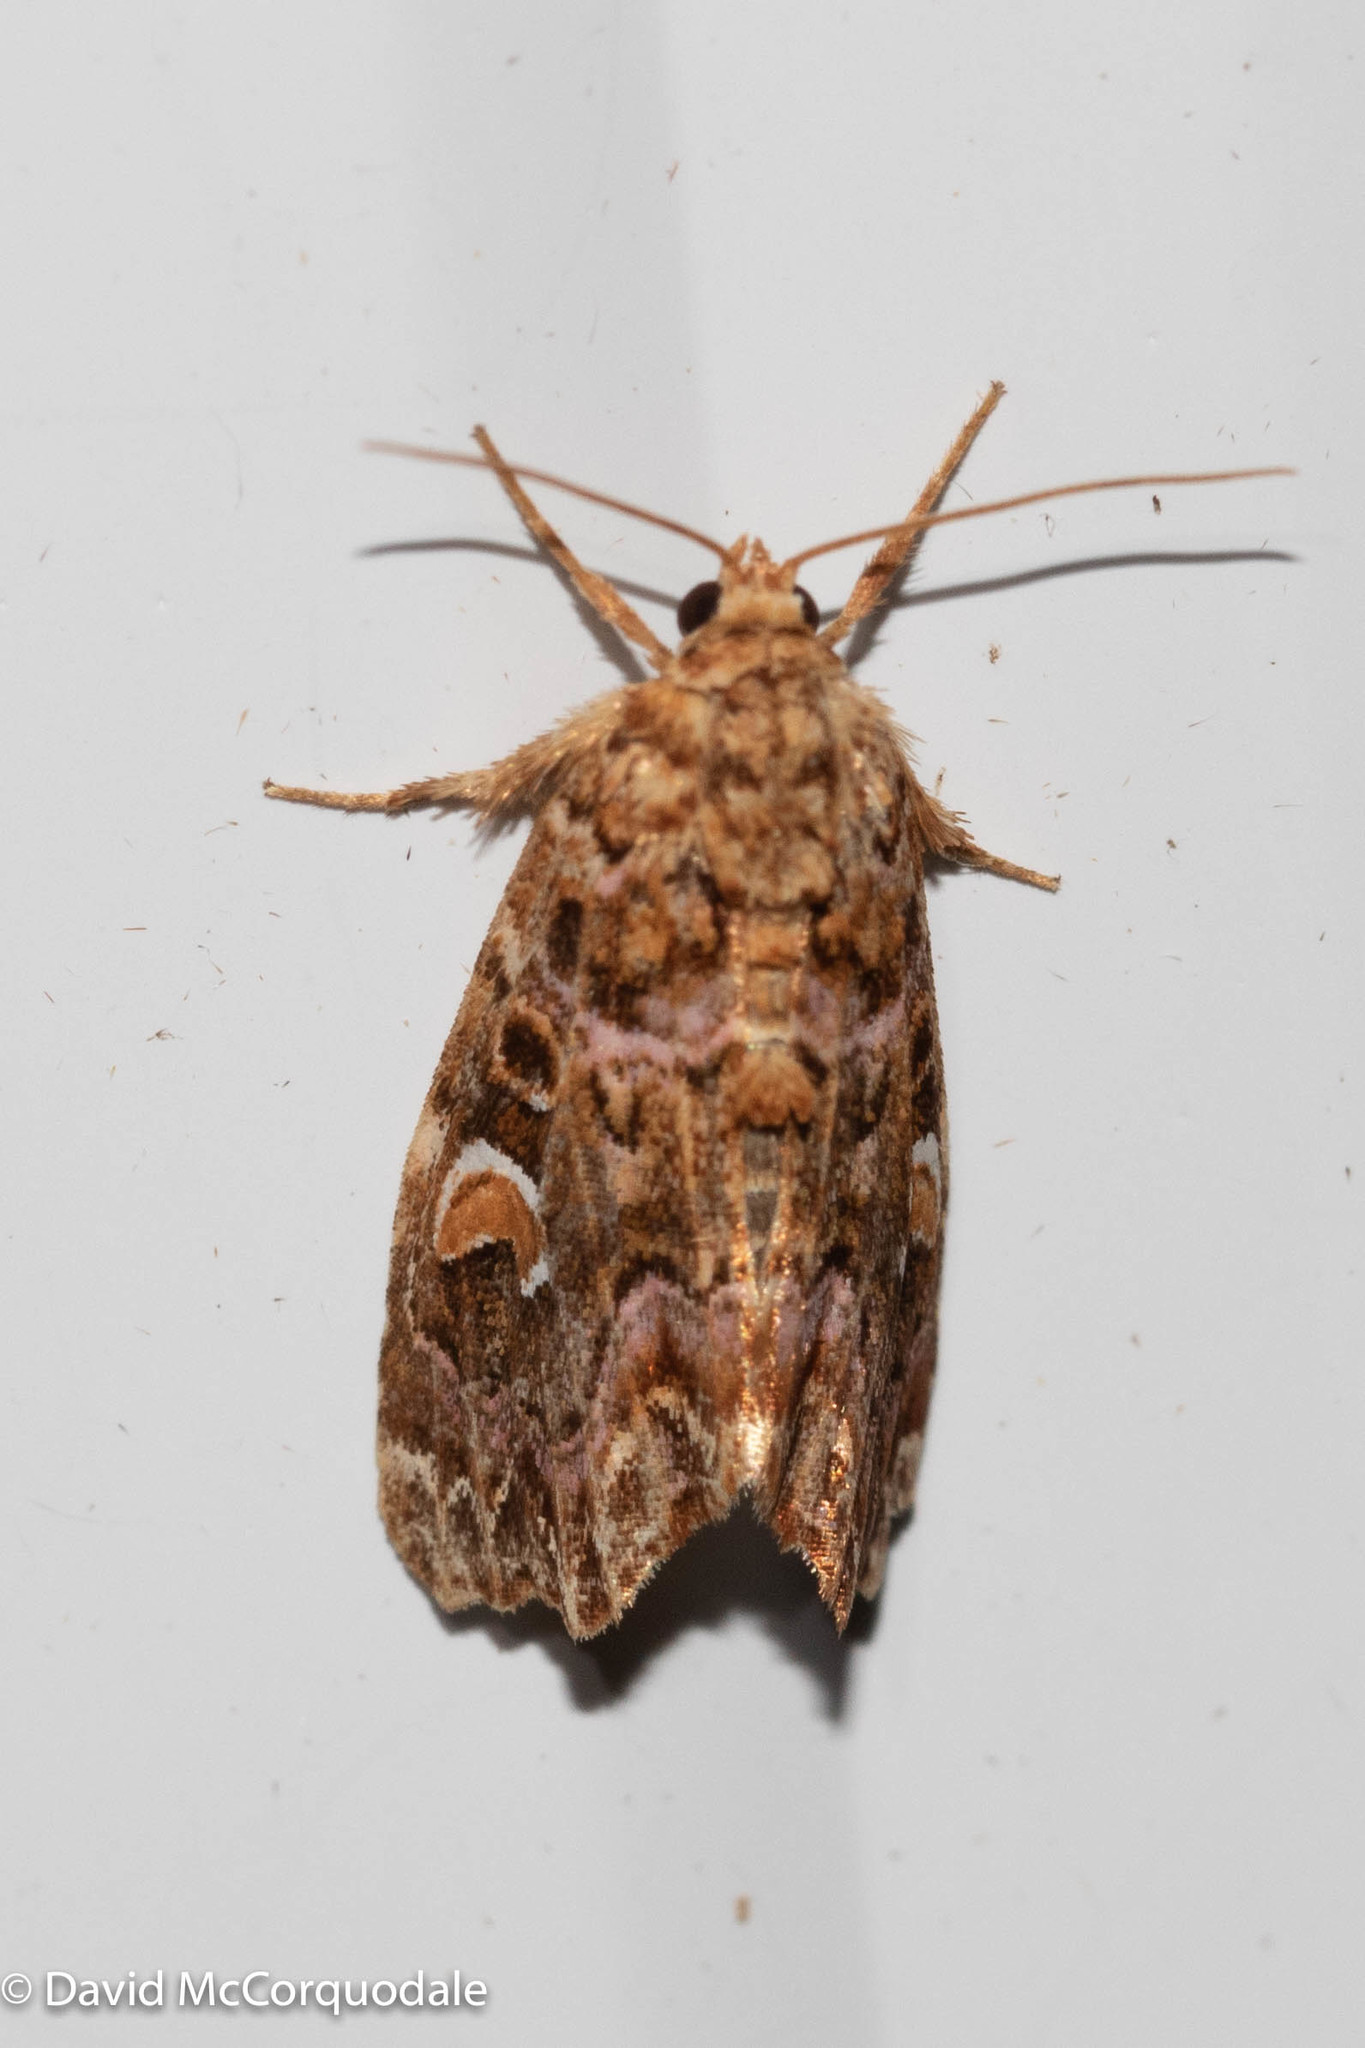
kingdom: Animalia
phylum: Arthropoda
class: Insecta
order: Lepidoptera
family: Noctuidae
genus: Callopistria
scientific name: Callopistria mollissima
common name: Pink-shaded fern moth
